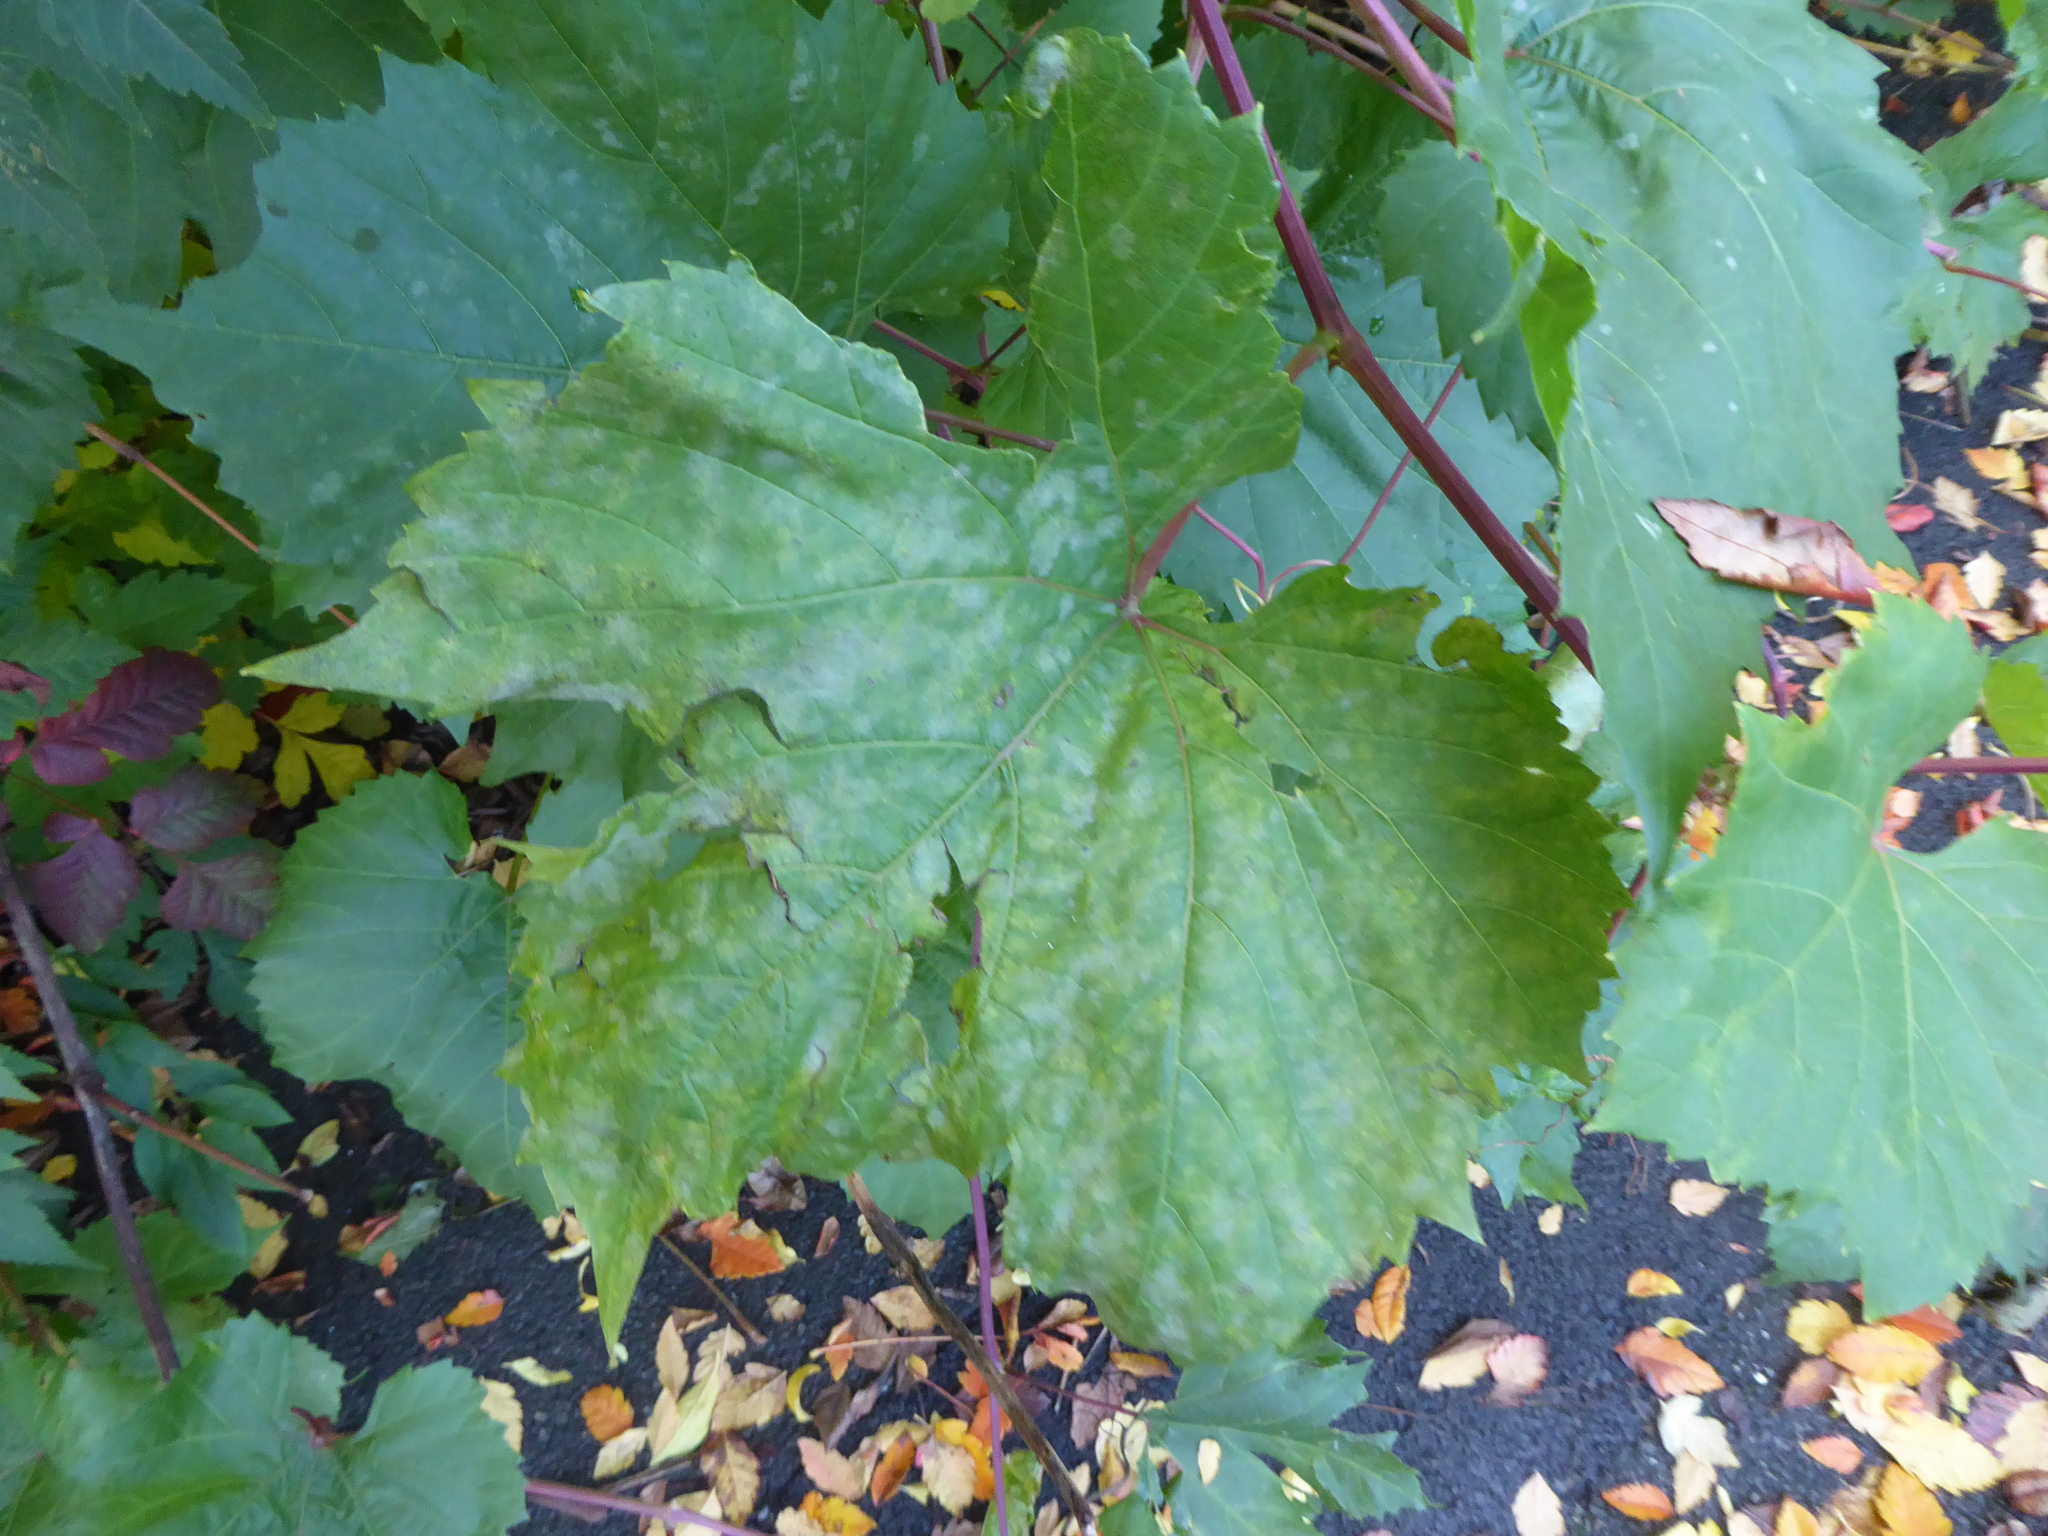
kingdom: Fungi
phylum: Ascomycota
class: Leotiomycetes
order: Helotiales
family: Erysiphaceae
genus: Erysiphe
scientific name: Erysiphe necator
